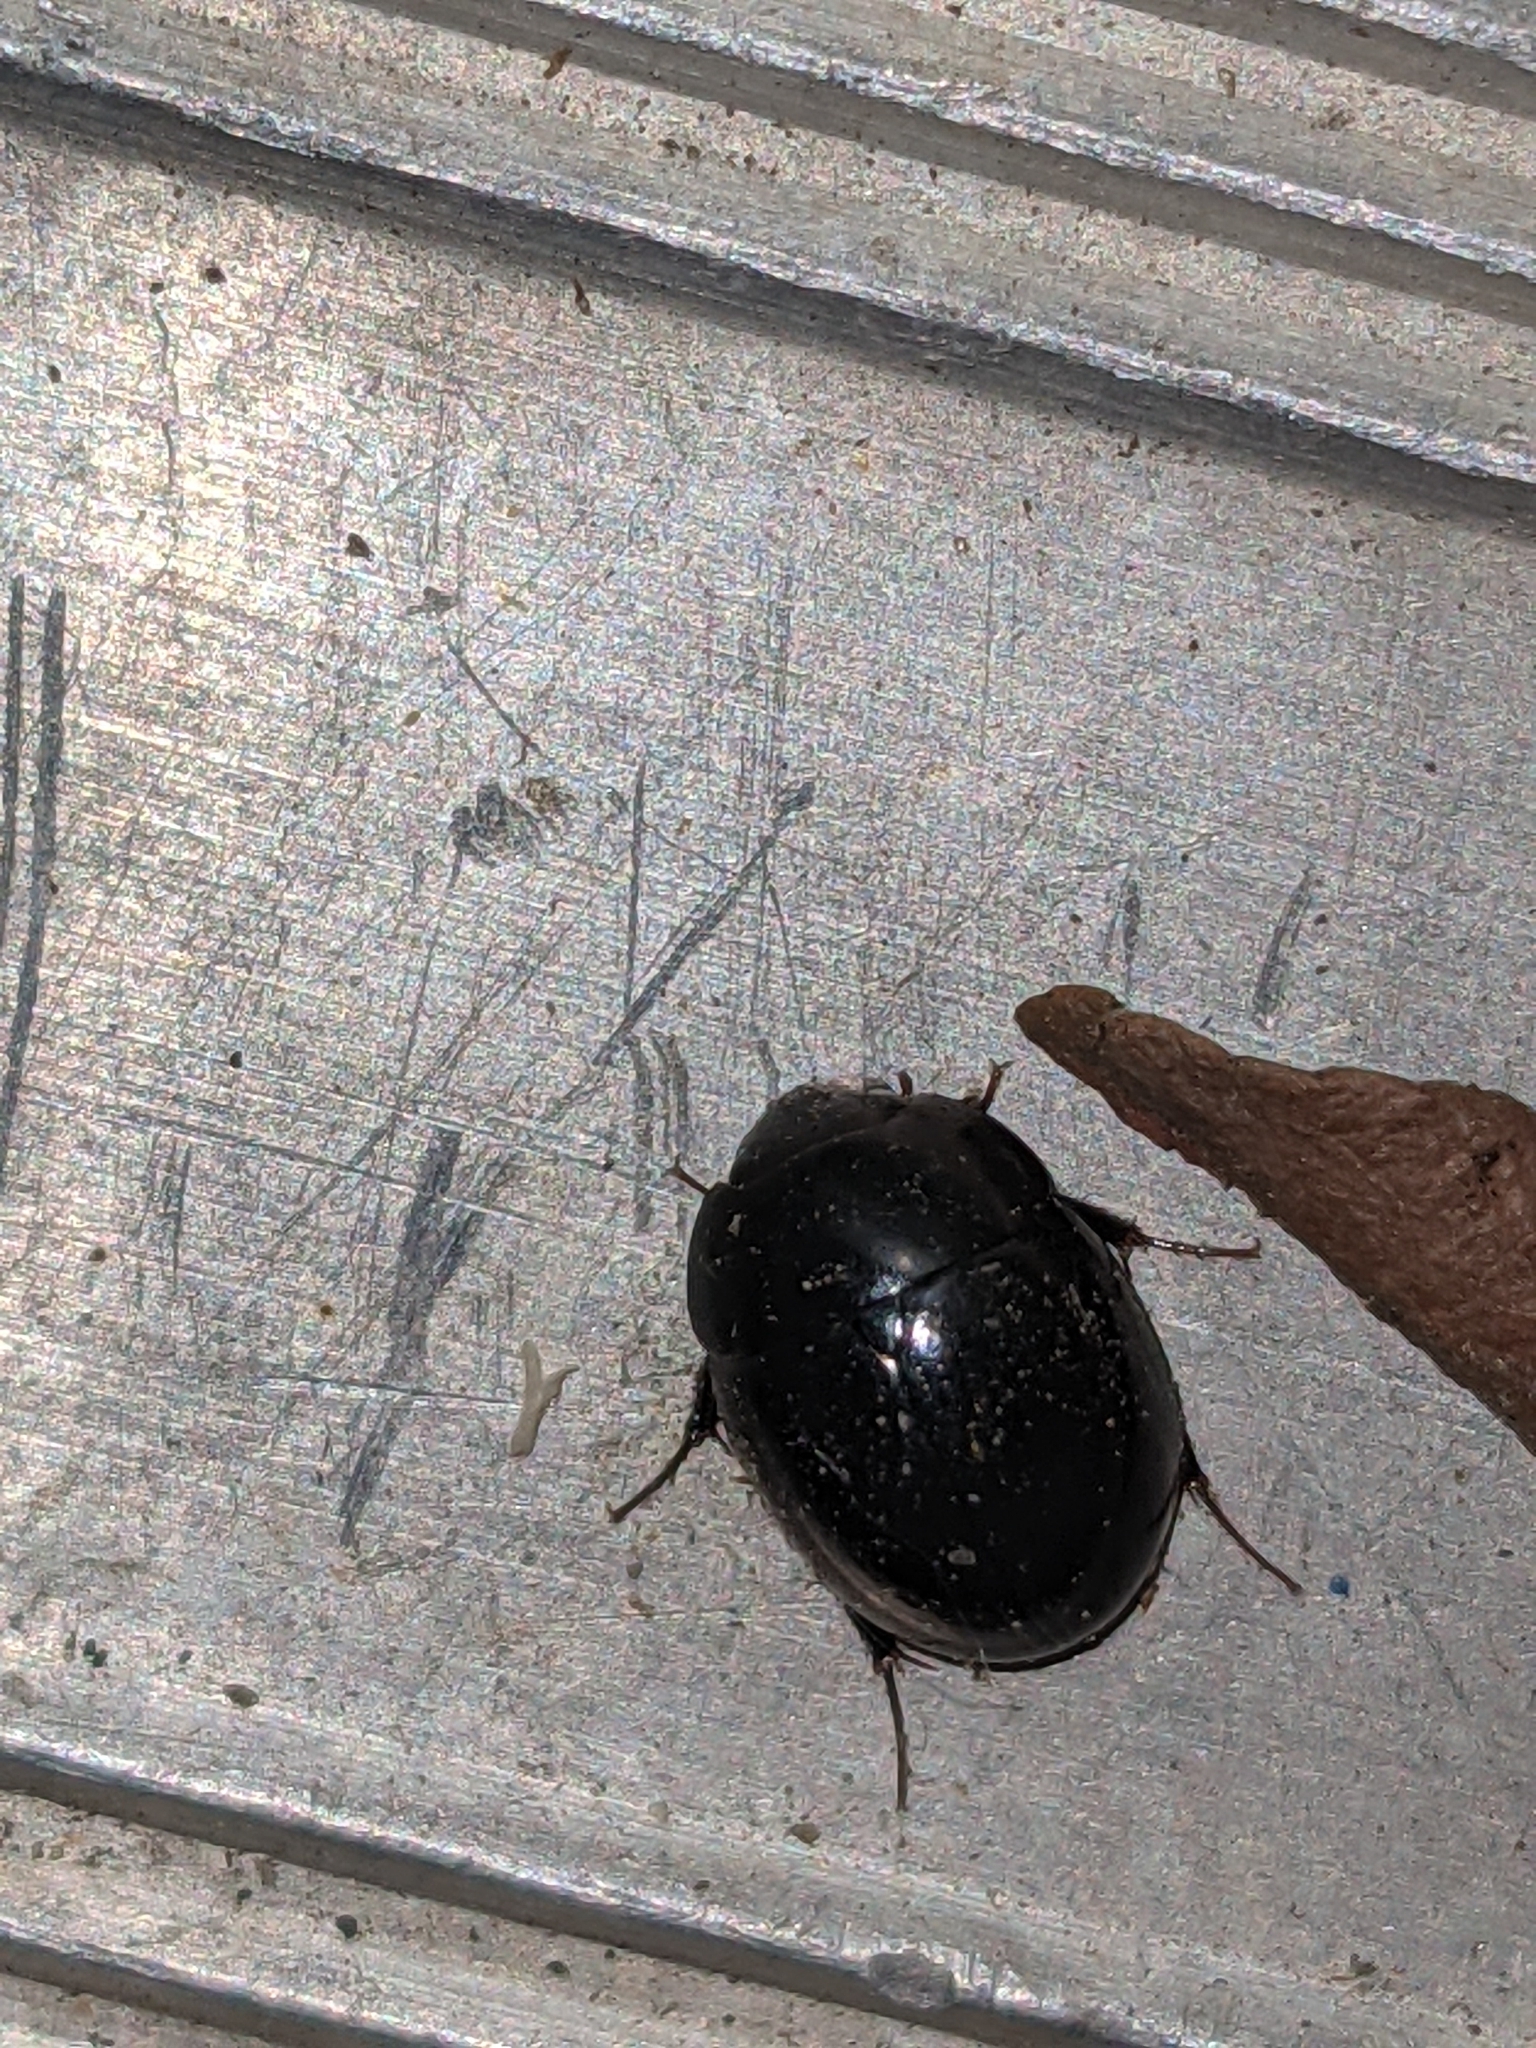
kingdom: Animalia
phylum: Arthropoda
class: Insecta
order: Coleoptera
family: Hydrophilidae
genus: Limnohydrobius
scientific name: Limnohydrobius melaenus
